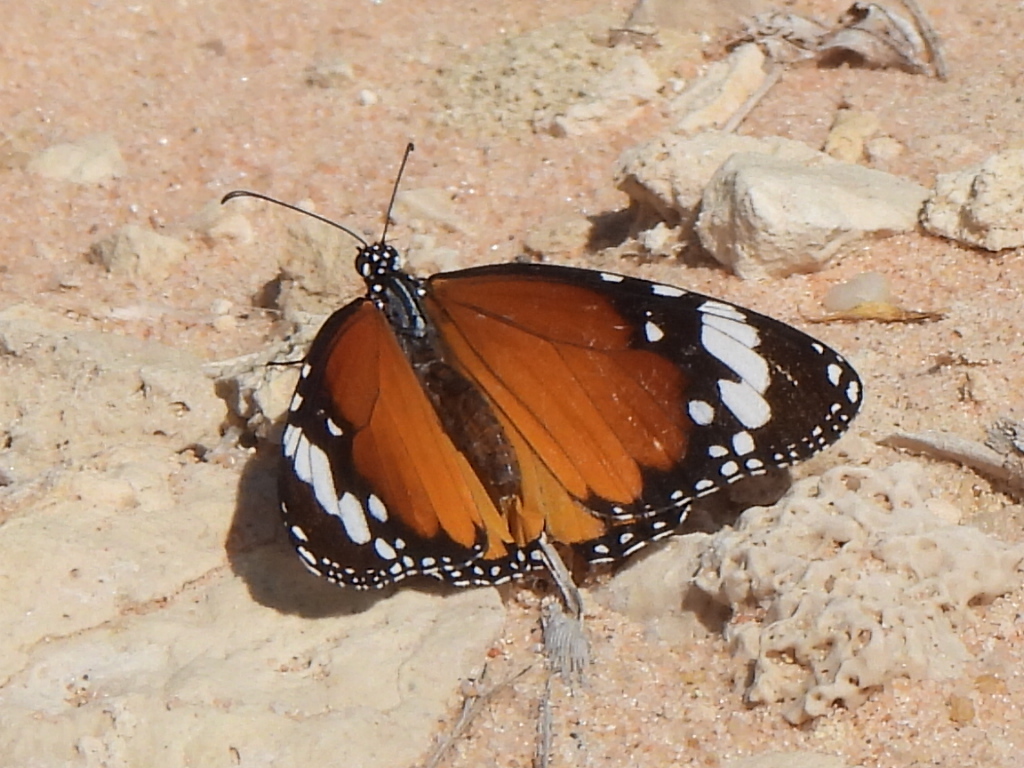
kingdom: Animalia
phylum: Arthropoda
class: Insecta
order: Lepidoptera
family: Nymphalidae
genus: Danaus
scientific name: Danaus chrysippus
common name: Plain tiger
